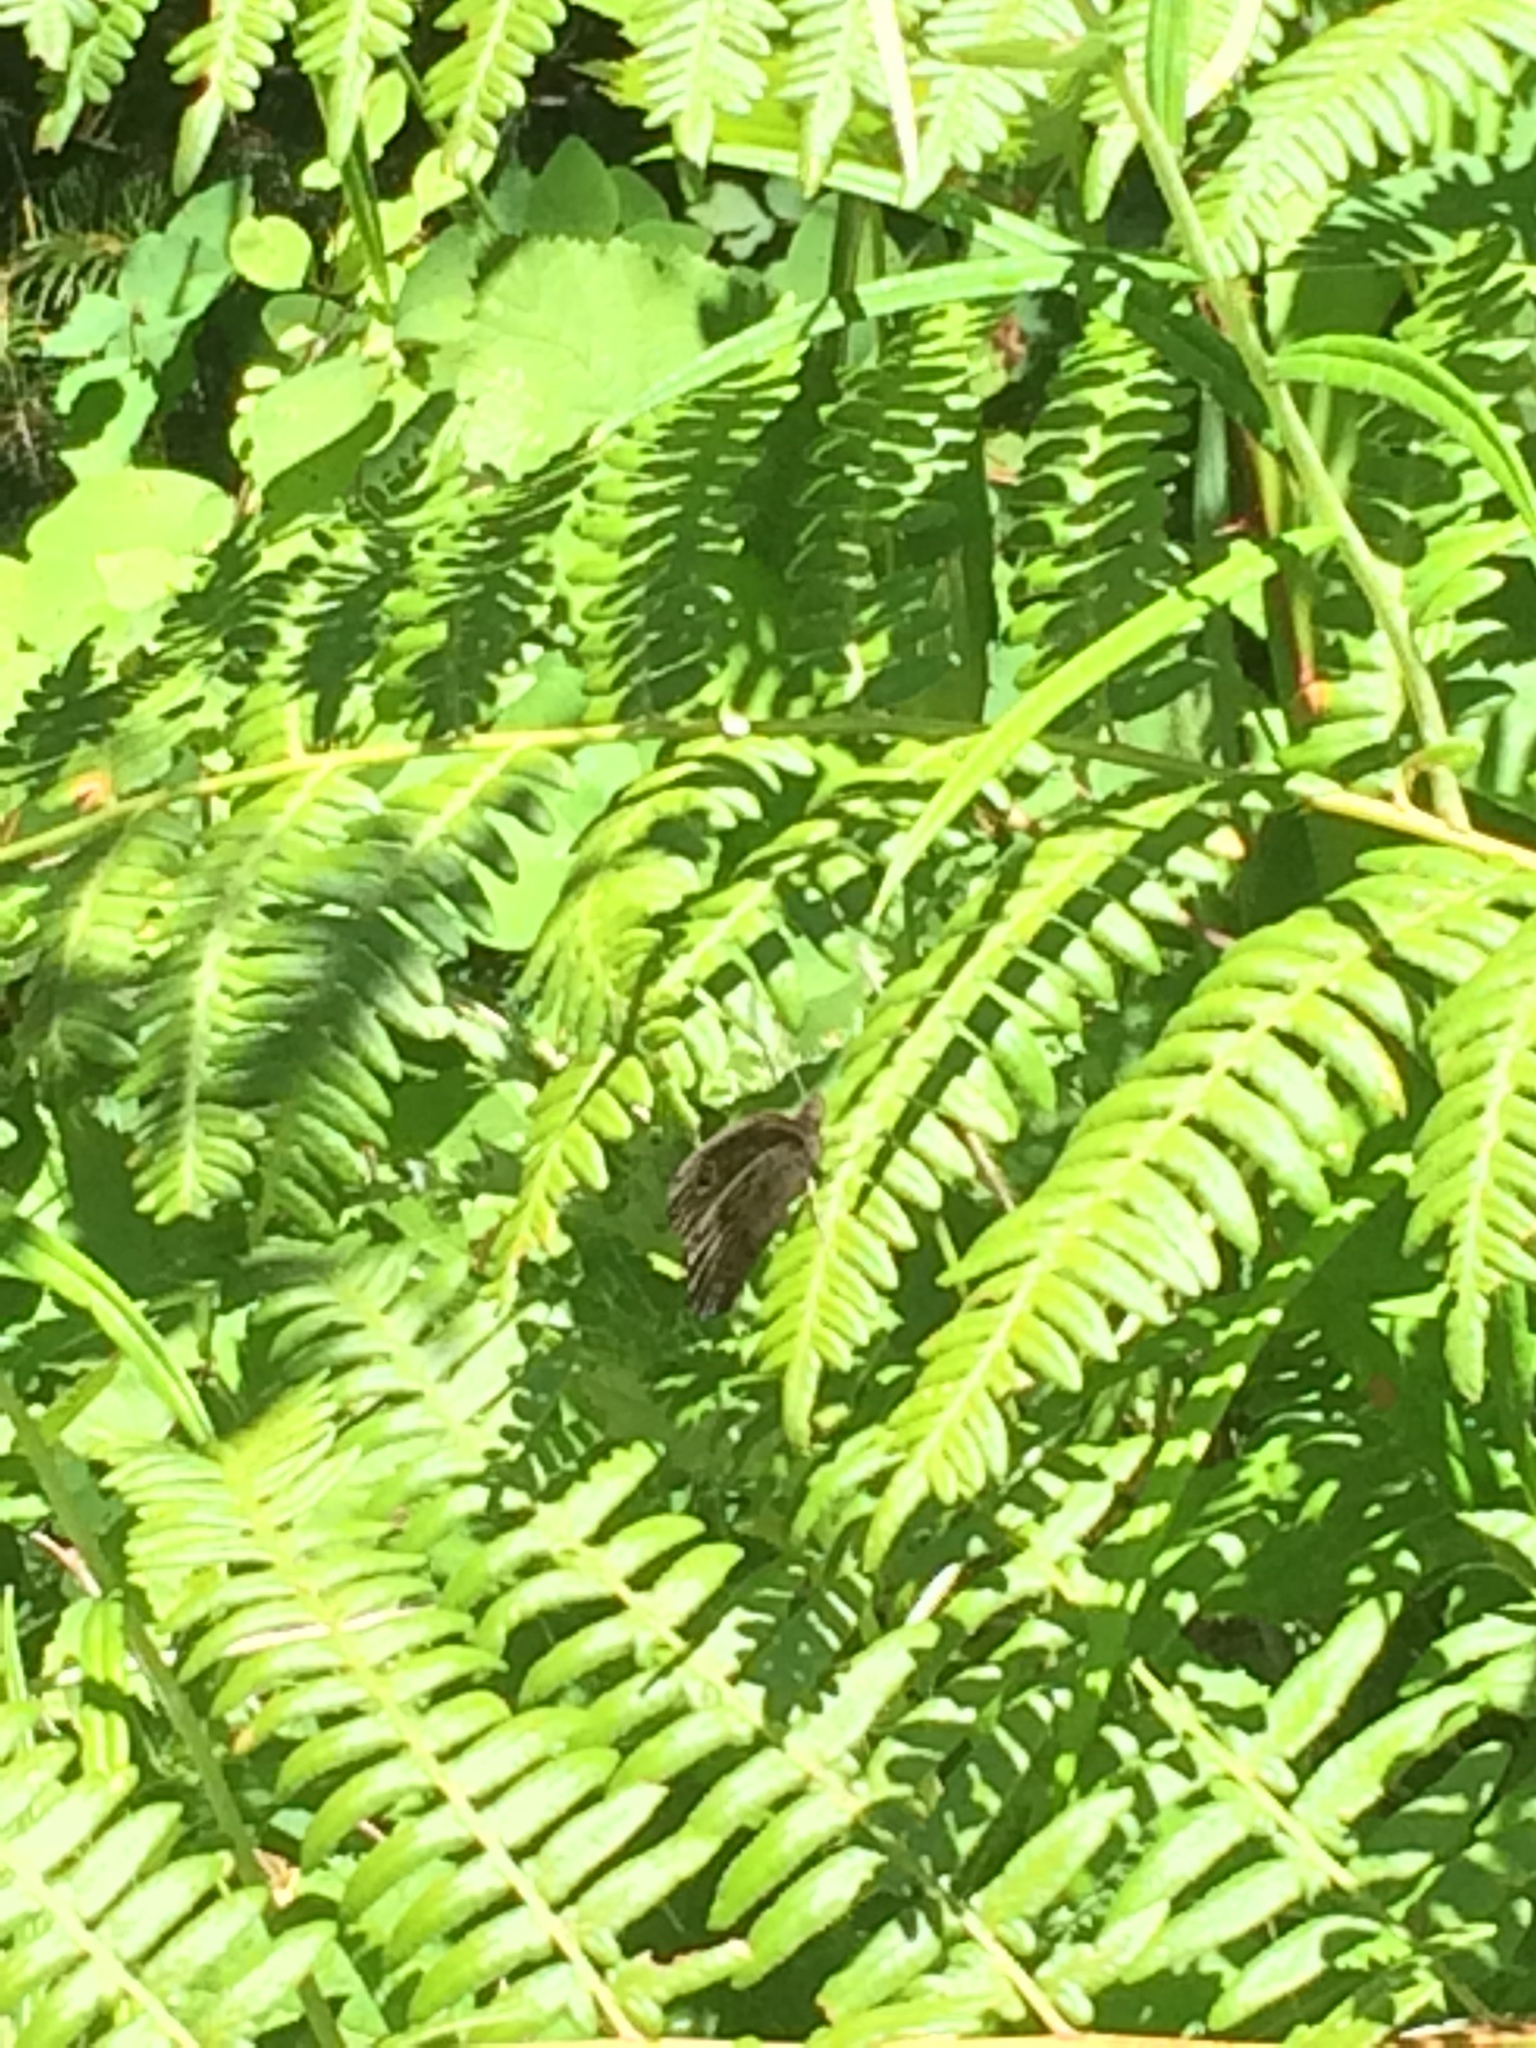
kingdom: Animalia
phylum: Arthropoda
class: Insecta
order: Lepidoptera
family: Nymphalidae
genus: Cercyonis
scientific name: Cercyonis pegala
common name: Common wood-nymph
